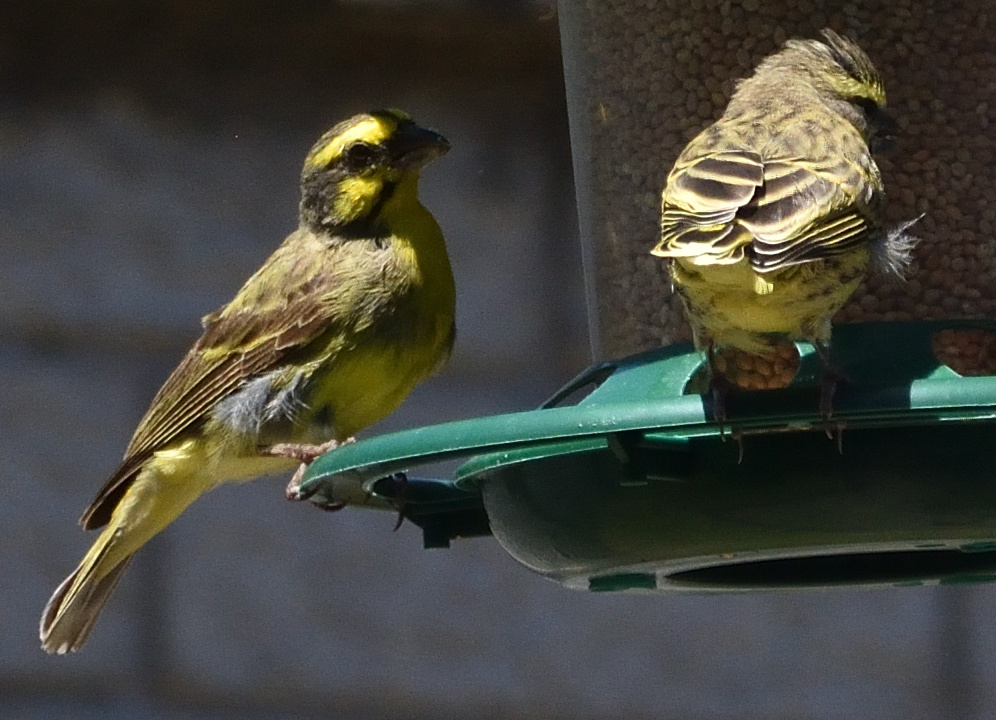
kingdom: Animalia
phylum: Chordata
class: Aves
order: Passeriformes
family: Fringillidae
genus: Crithagra
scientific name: Crithagra mozambica
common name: Yellow-fronted canary
